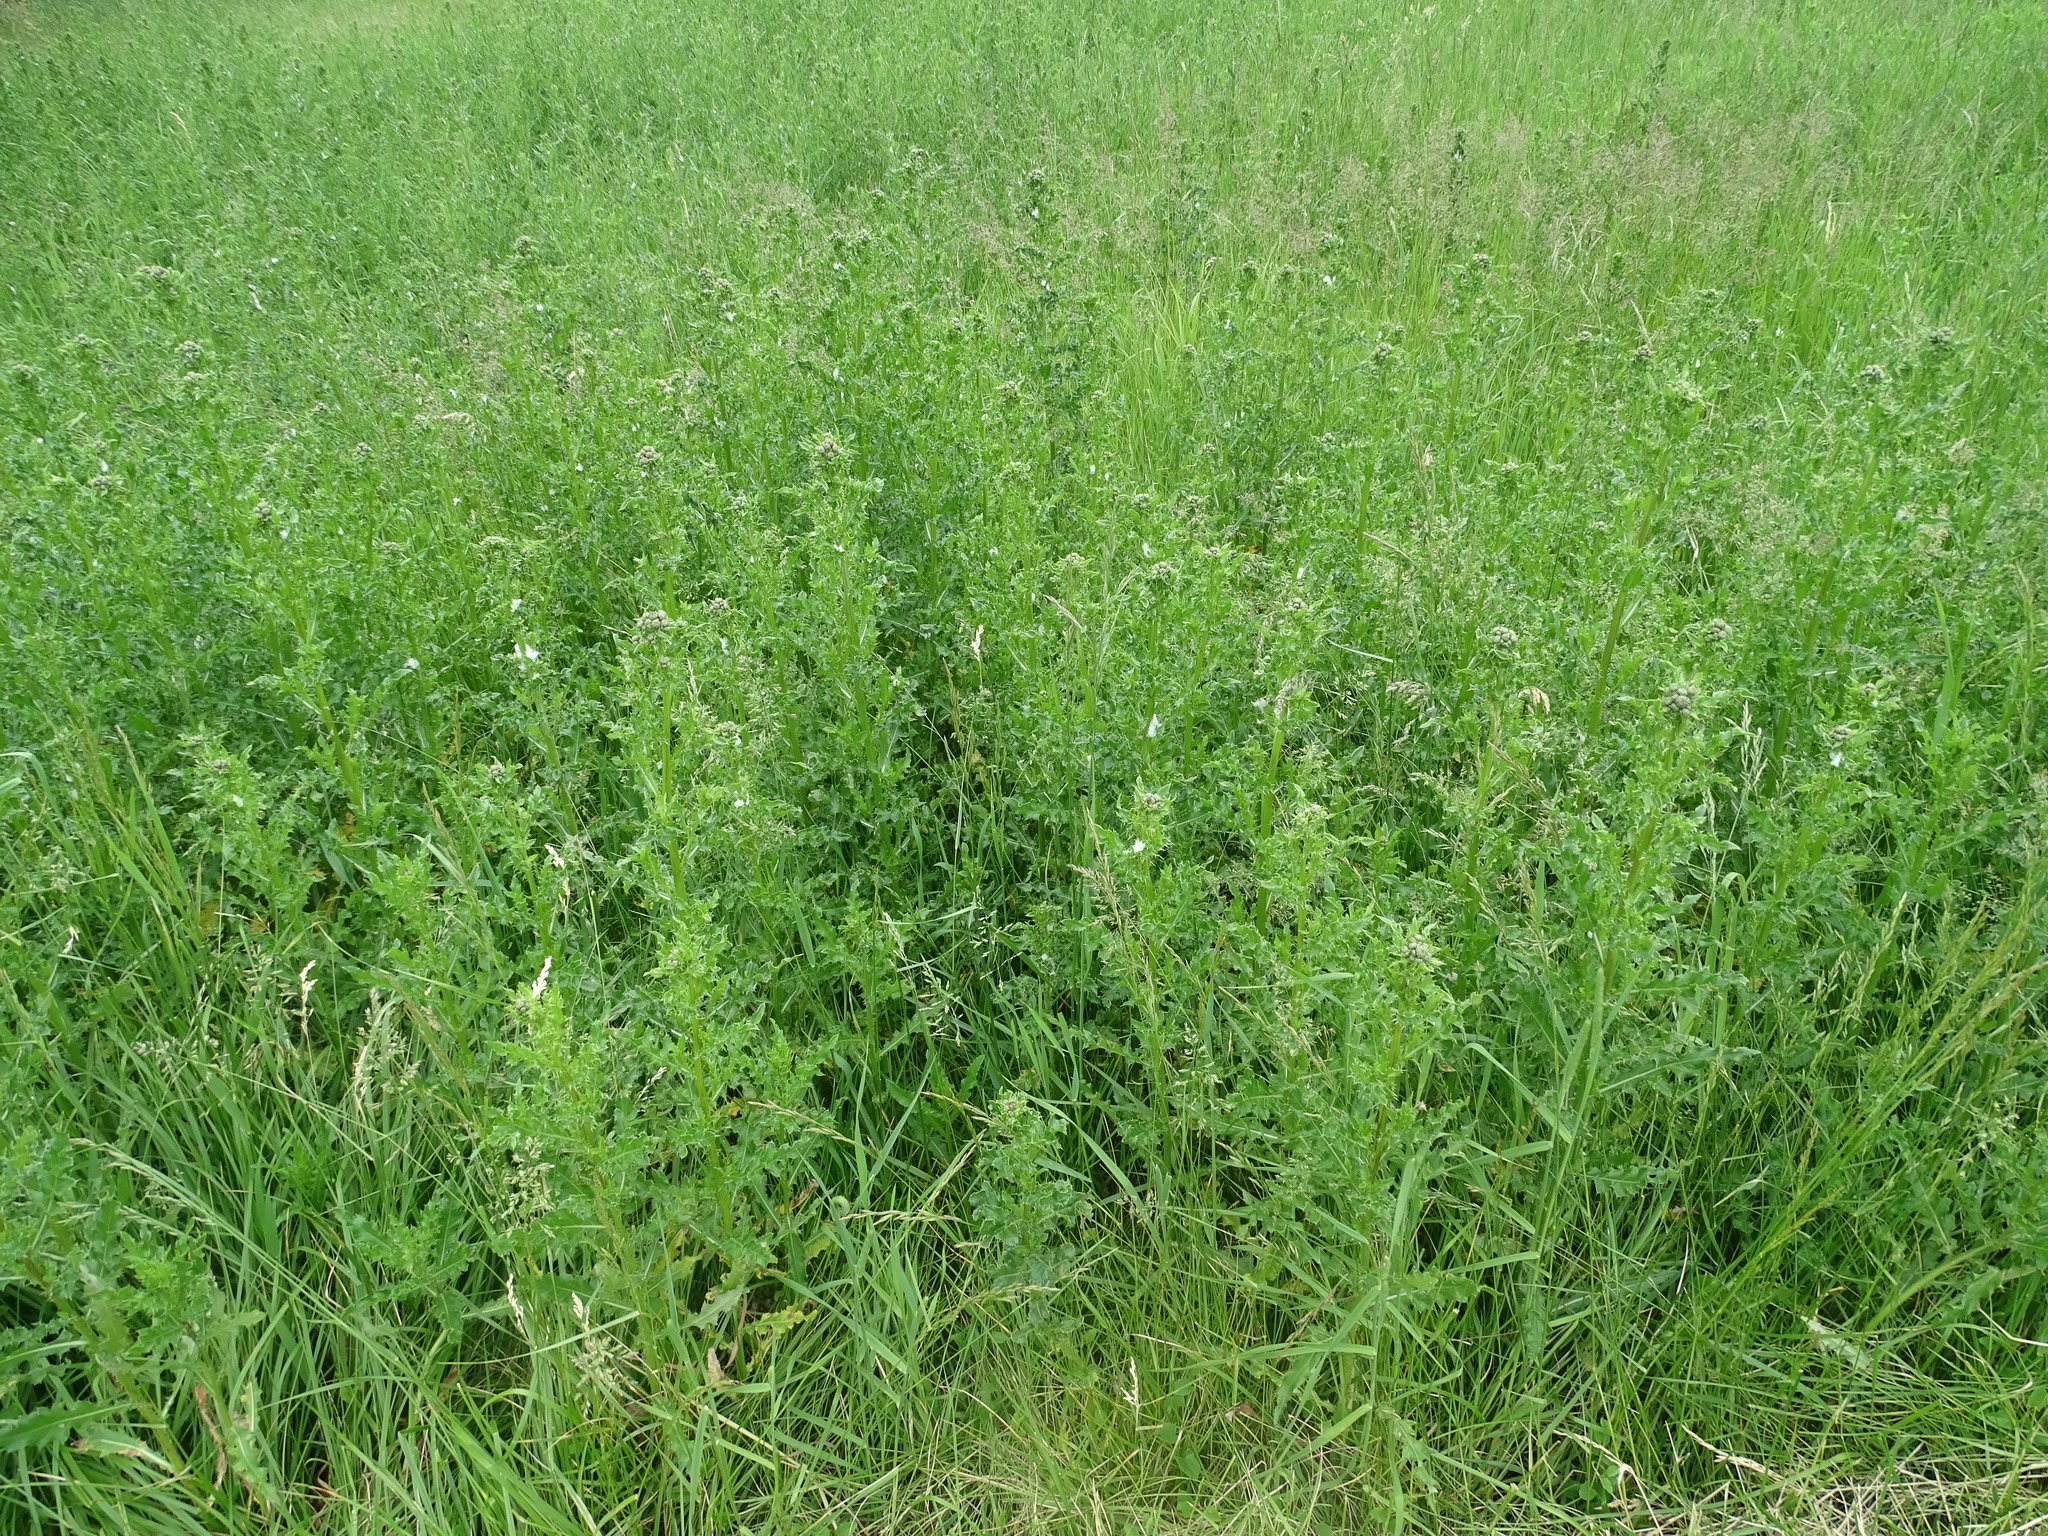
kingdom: Plantae
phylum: Tracheophyta
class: Magnoliopsida
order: Asterales
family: Asteraceae
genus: Cirsium
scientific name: Cirsium arvense
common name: Creeping thistle
